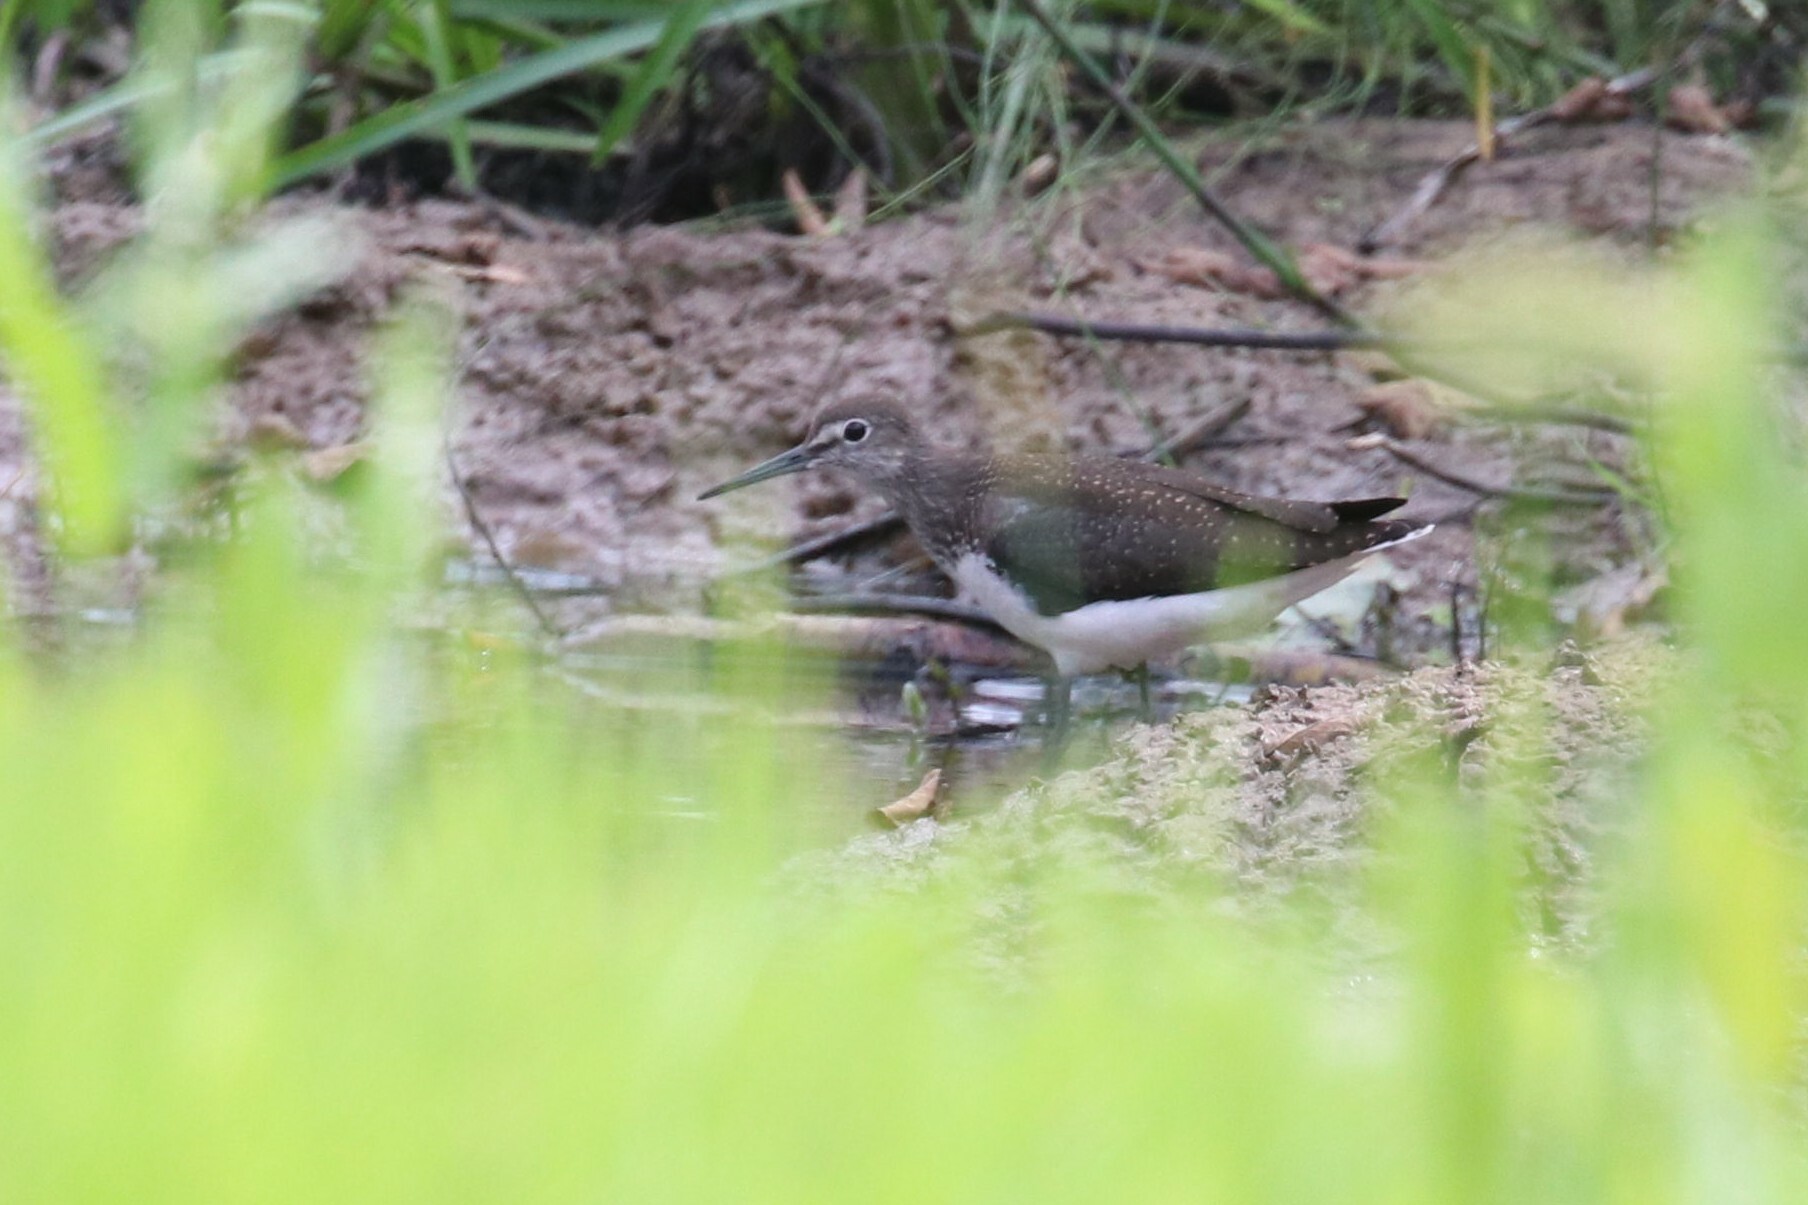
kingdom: Animalia
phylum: Chordata
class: Aves
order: Charadriiformes
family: Scolopacidae
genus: Tringa
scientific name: Tringa ochropus
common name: Green sandpiper
